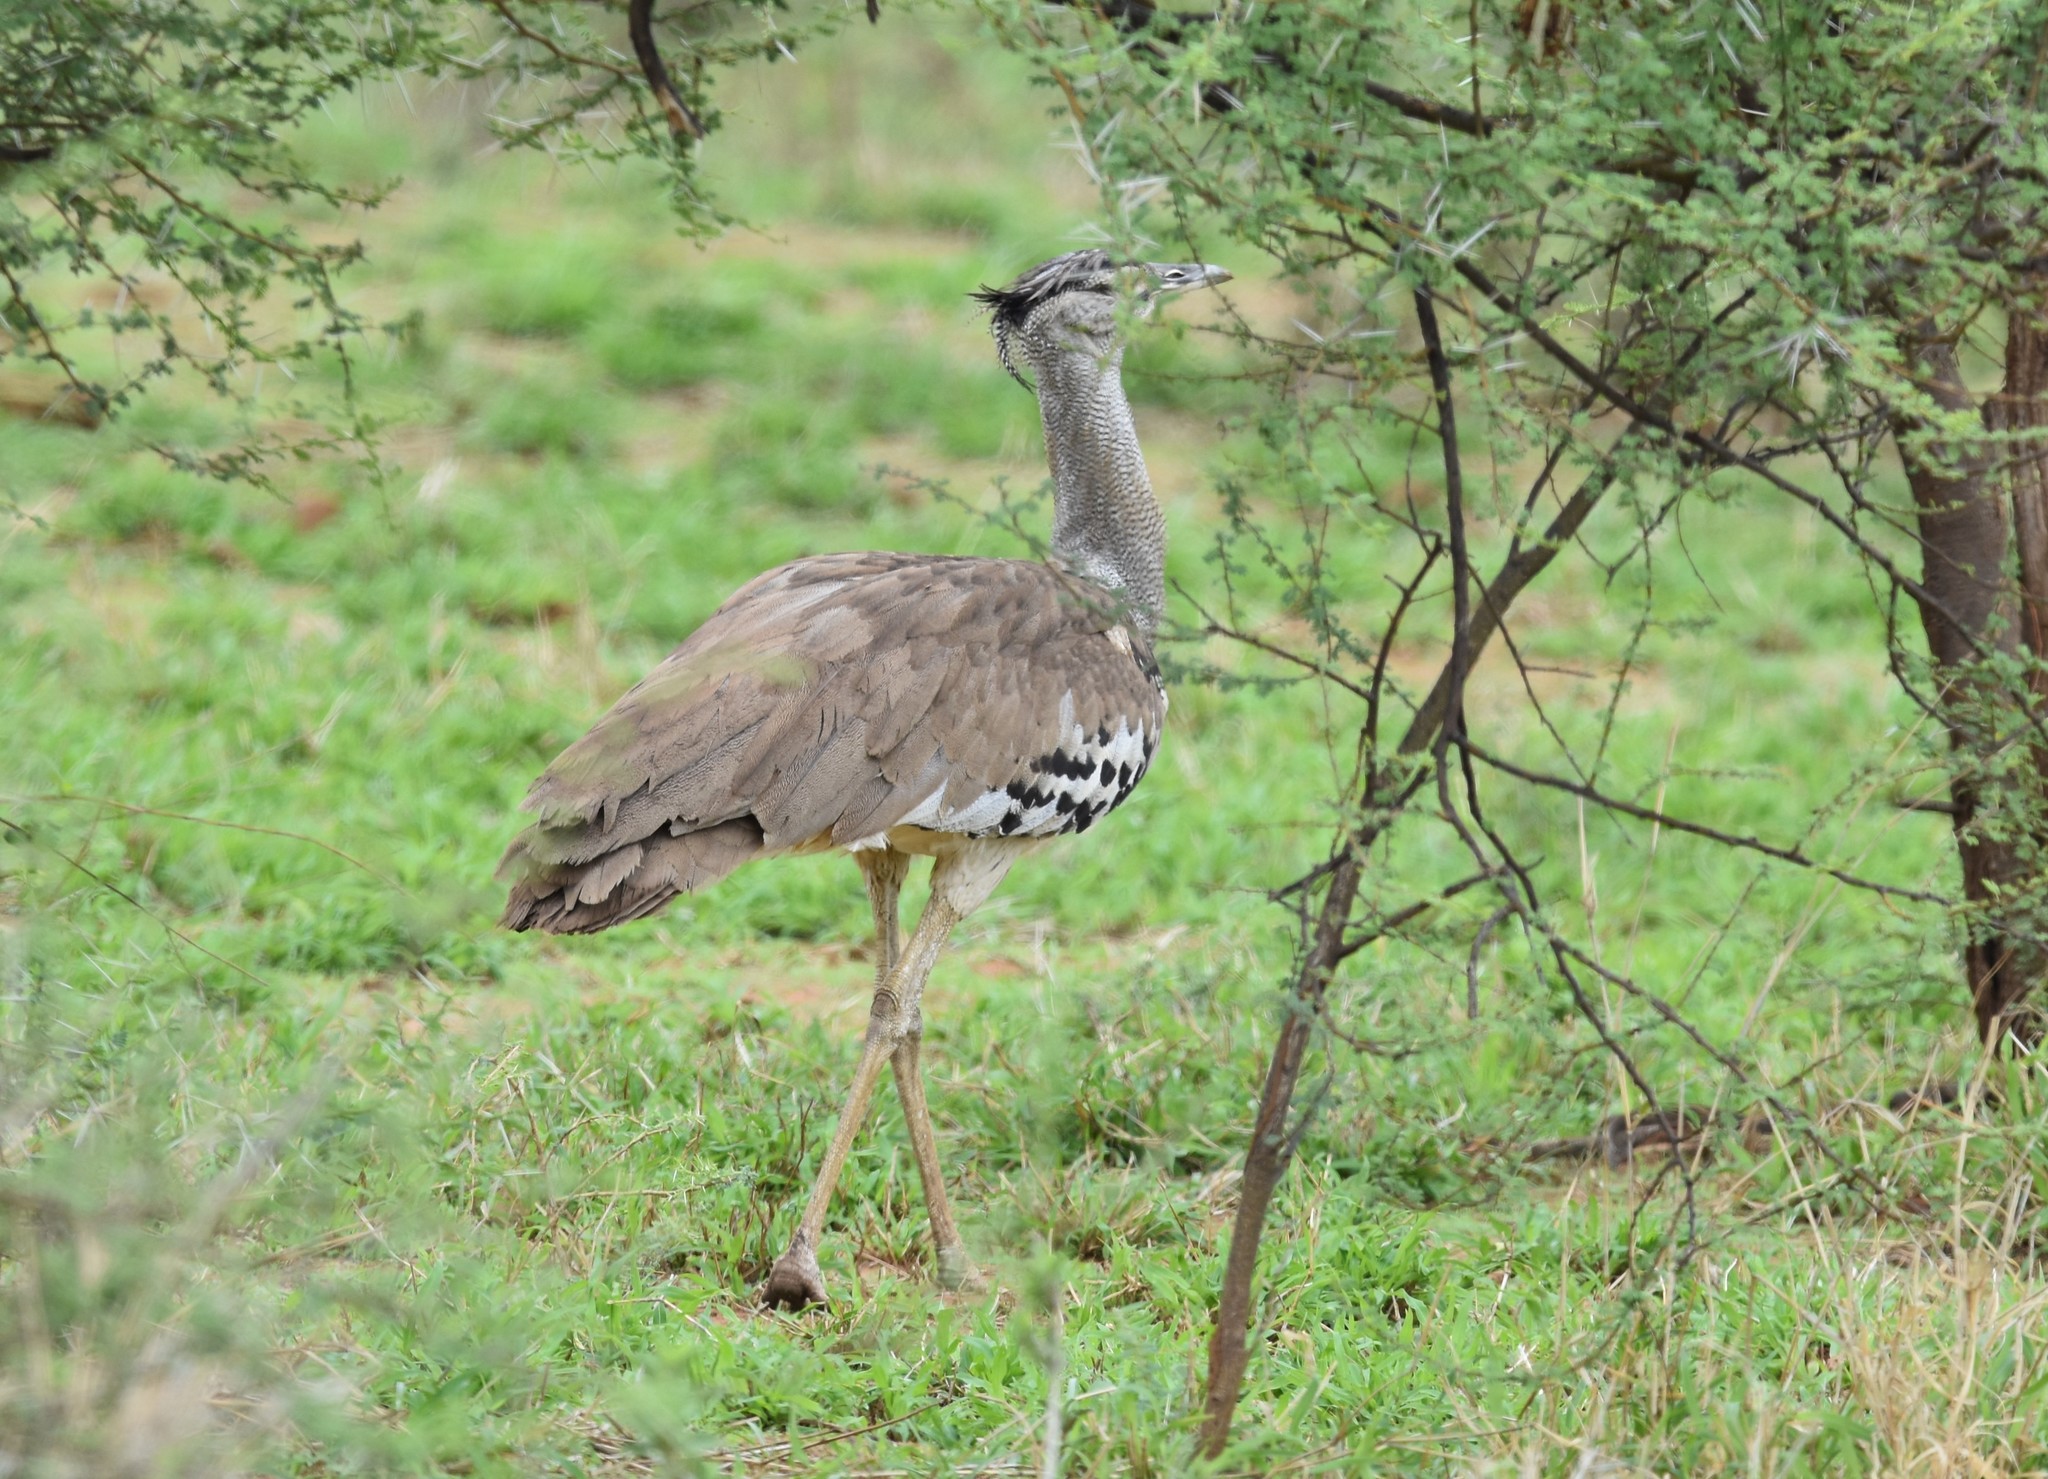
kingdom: Animalia
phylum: Chordata
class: Aves
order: Otidiformes
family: Otididae
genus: Ardeotis
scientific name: Ardeotis kori
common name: Kori bustard
